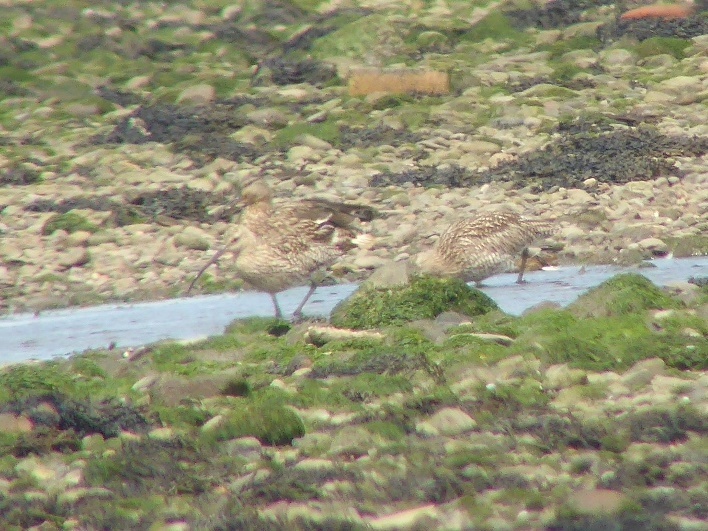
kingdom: Animalia
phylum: Chordata
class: Aves
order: Charadriiformes
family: Scolopacidae
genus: Numenius
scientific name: Numenius arquata
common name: Eurasian curlew
